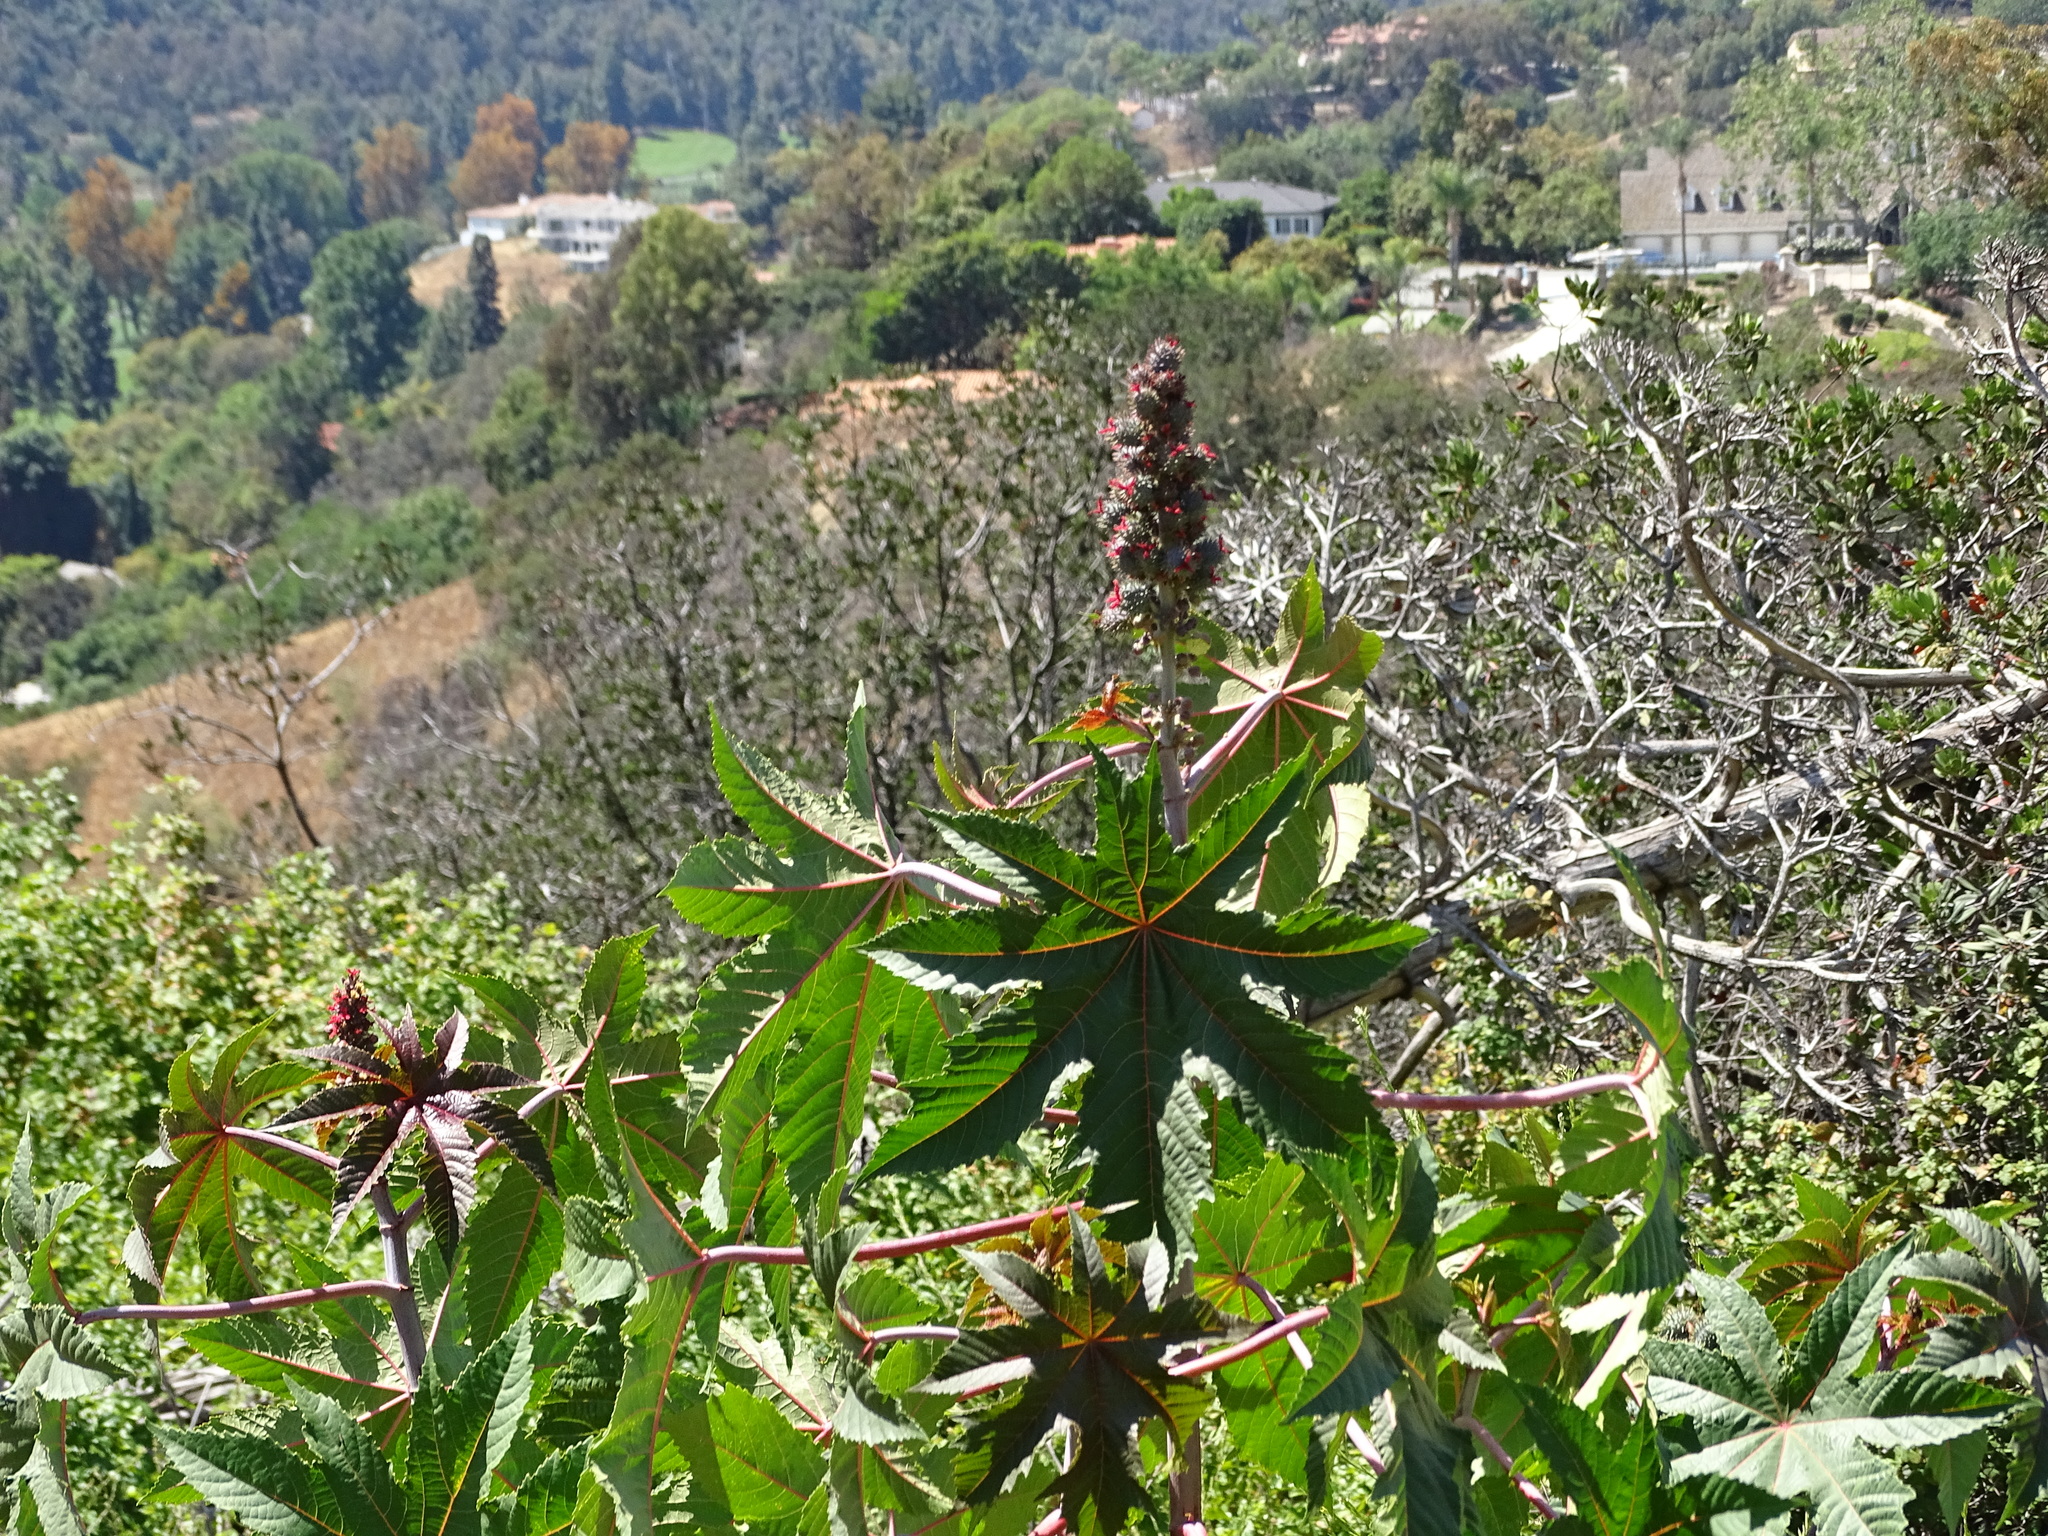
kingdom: Plantae
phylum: Tracheophyta
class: Magnoliopsida
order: Malpighiales
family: Euphorbiaceae
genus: Ricinus
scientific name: Ricinus communis
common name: Castor-oil-plant
